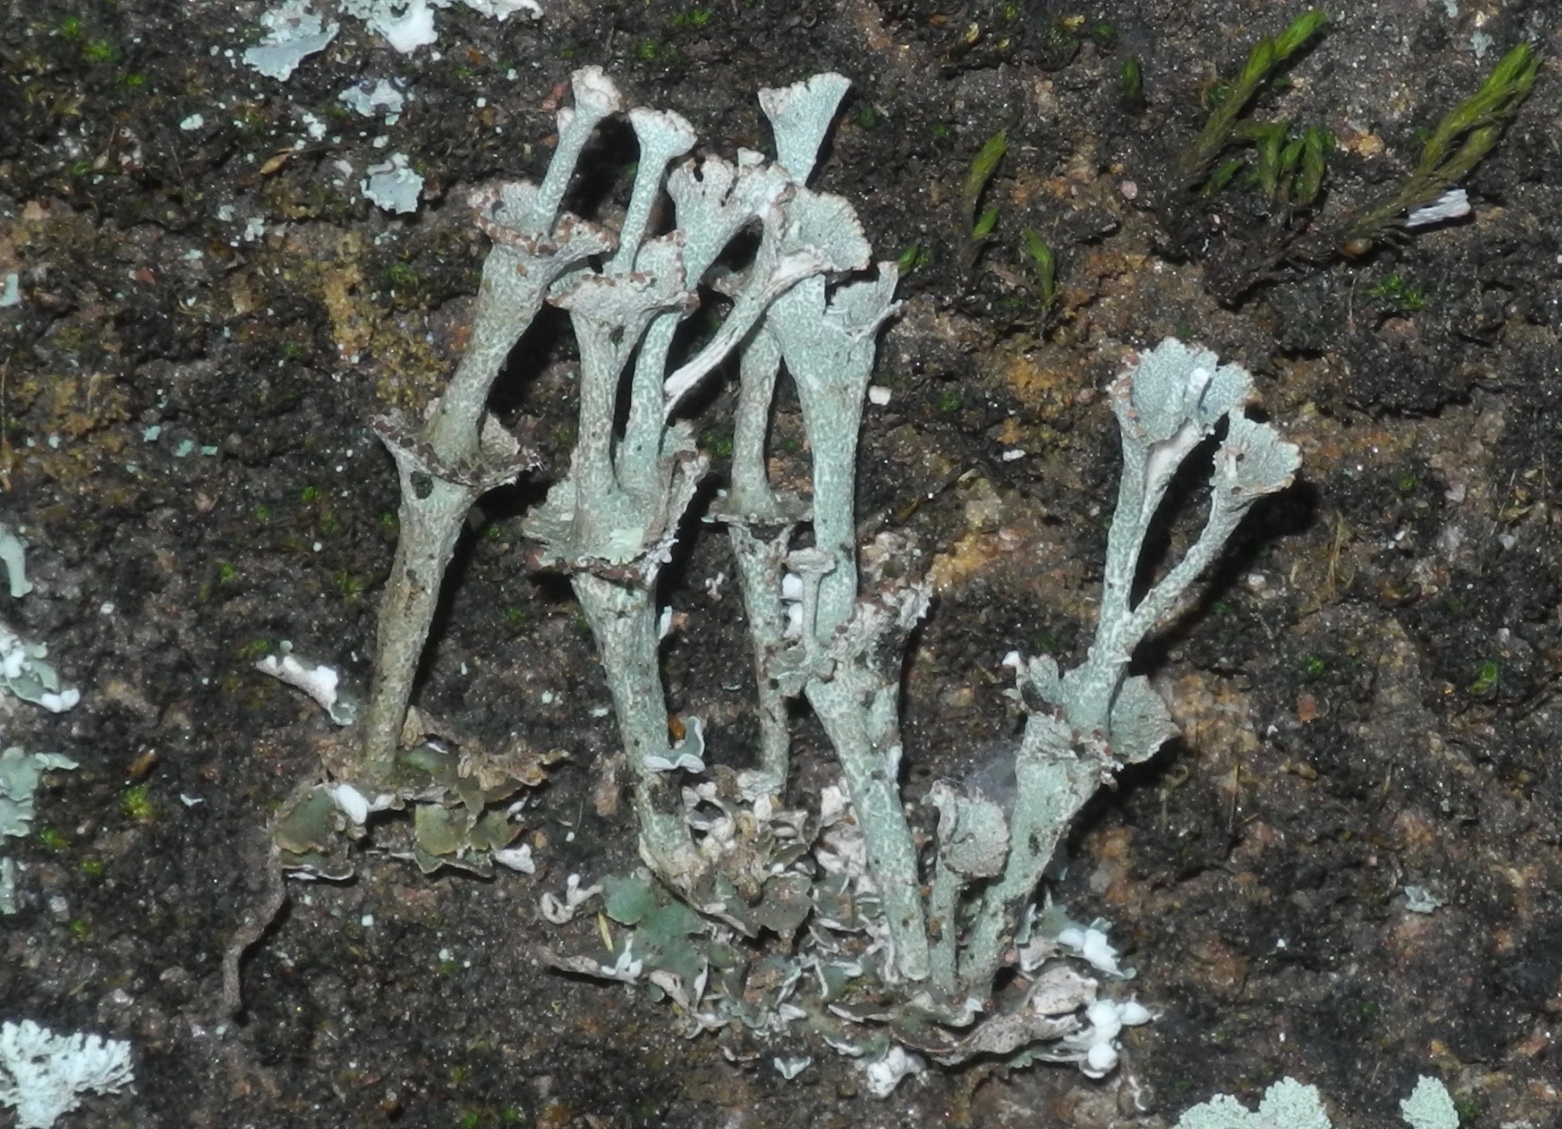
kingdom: Fungi
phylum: Ascomycota
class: Lecanoromycetes
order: Lecanorales
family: Cladoniaceae
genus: Cladonia
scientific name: Cladonia cervicornis
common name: Browned pixie-cup lichen
